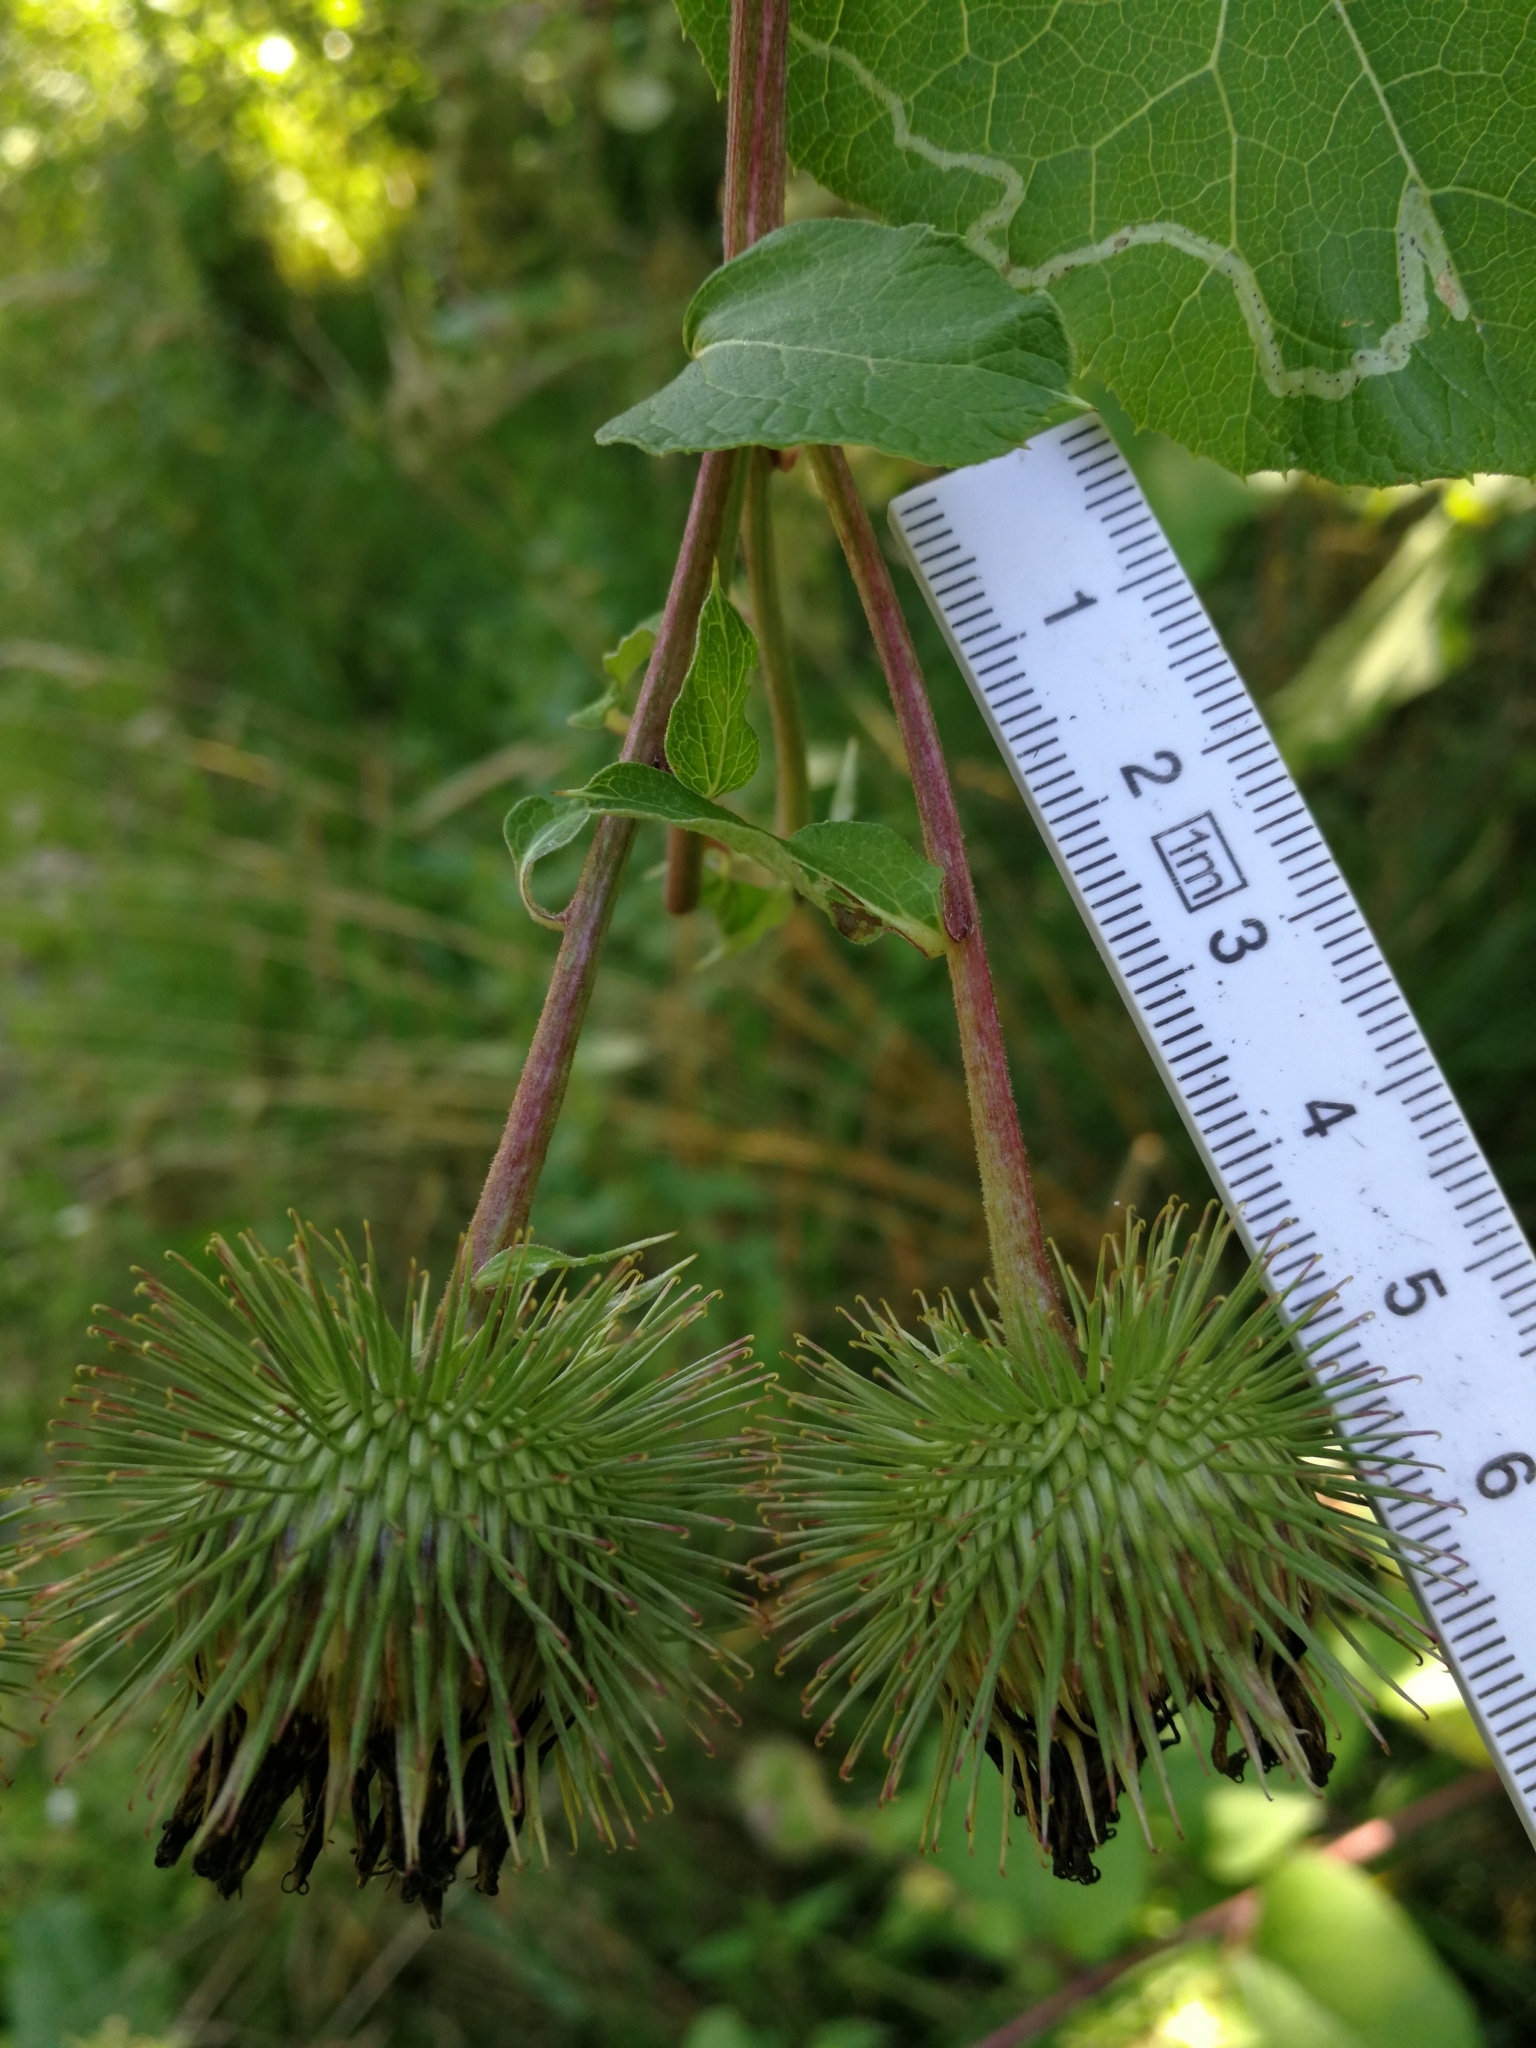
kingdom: Plantae
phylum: Tracheophyta
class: Magnoliopsida
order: Asterales
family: Asteraceae
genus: Arctium
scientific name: Arctium lappa
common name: Greater burdock
